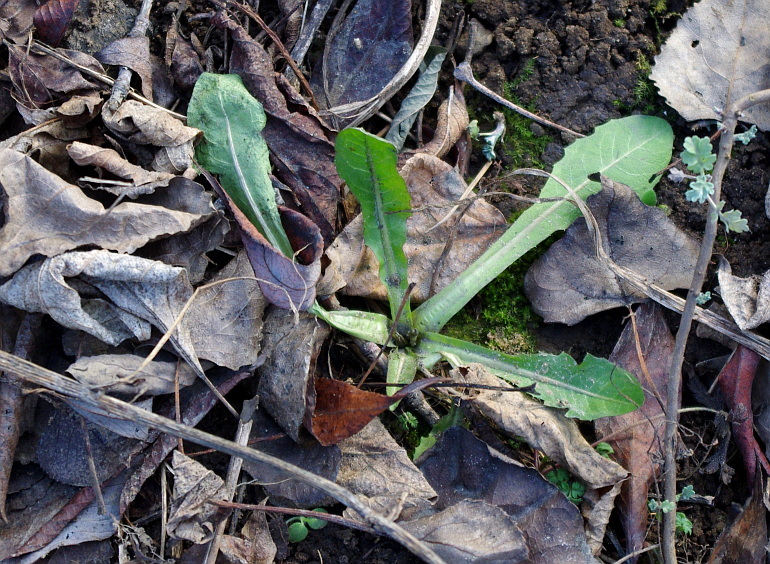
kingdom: Plantae
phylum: Tracheophyta
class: Magnoliopsida
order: Asterales
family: Asteraceae
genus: Taraxacum
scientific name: Taraxacum officinale
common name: Common dandelion
